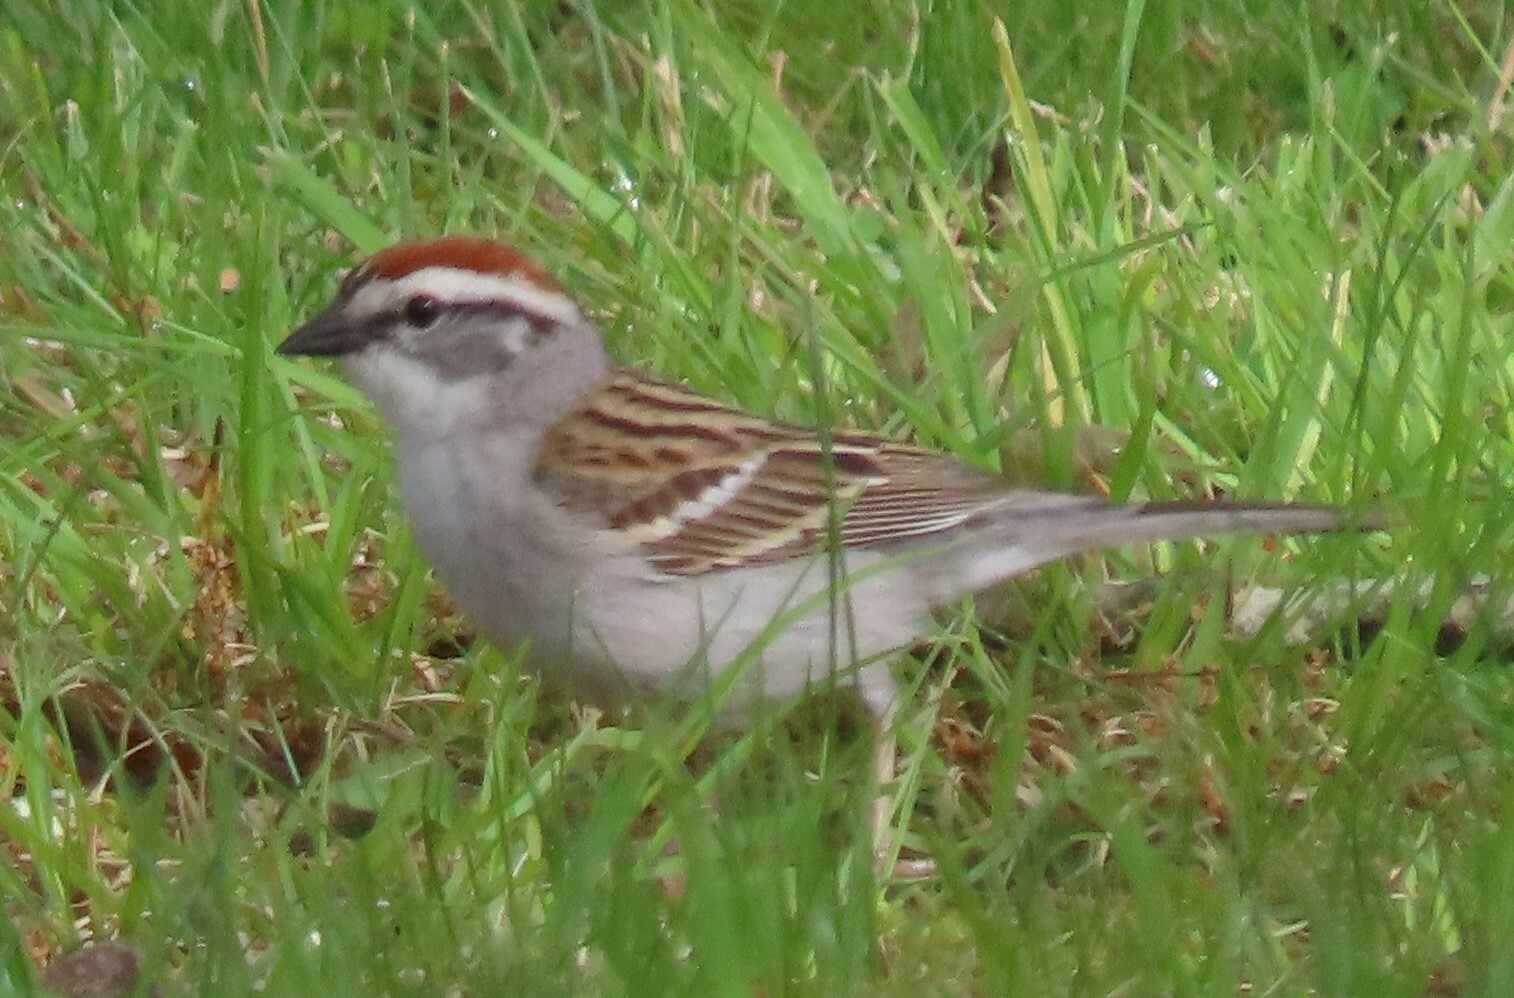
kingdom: Animalia
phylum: Chordata
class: Aves
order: Passeriformes
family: Passerellidae
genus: Spizella
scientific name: Spizella passerina
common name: Chipping sparrow
